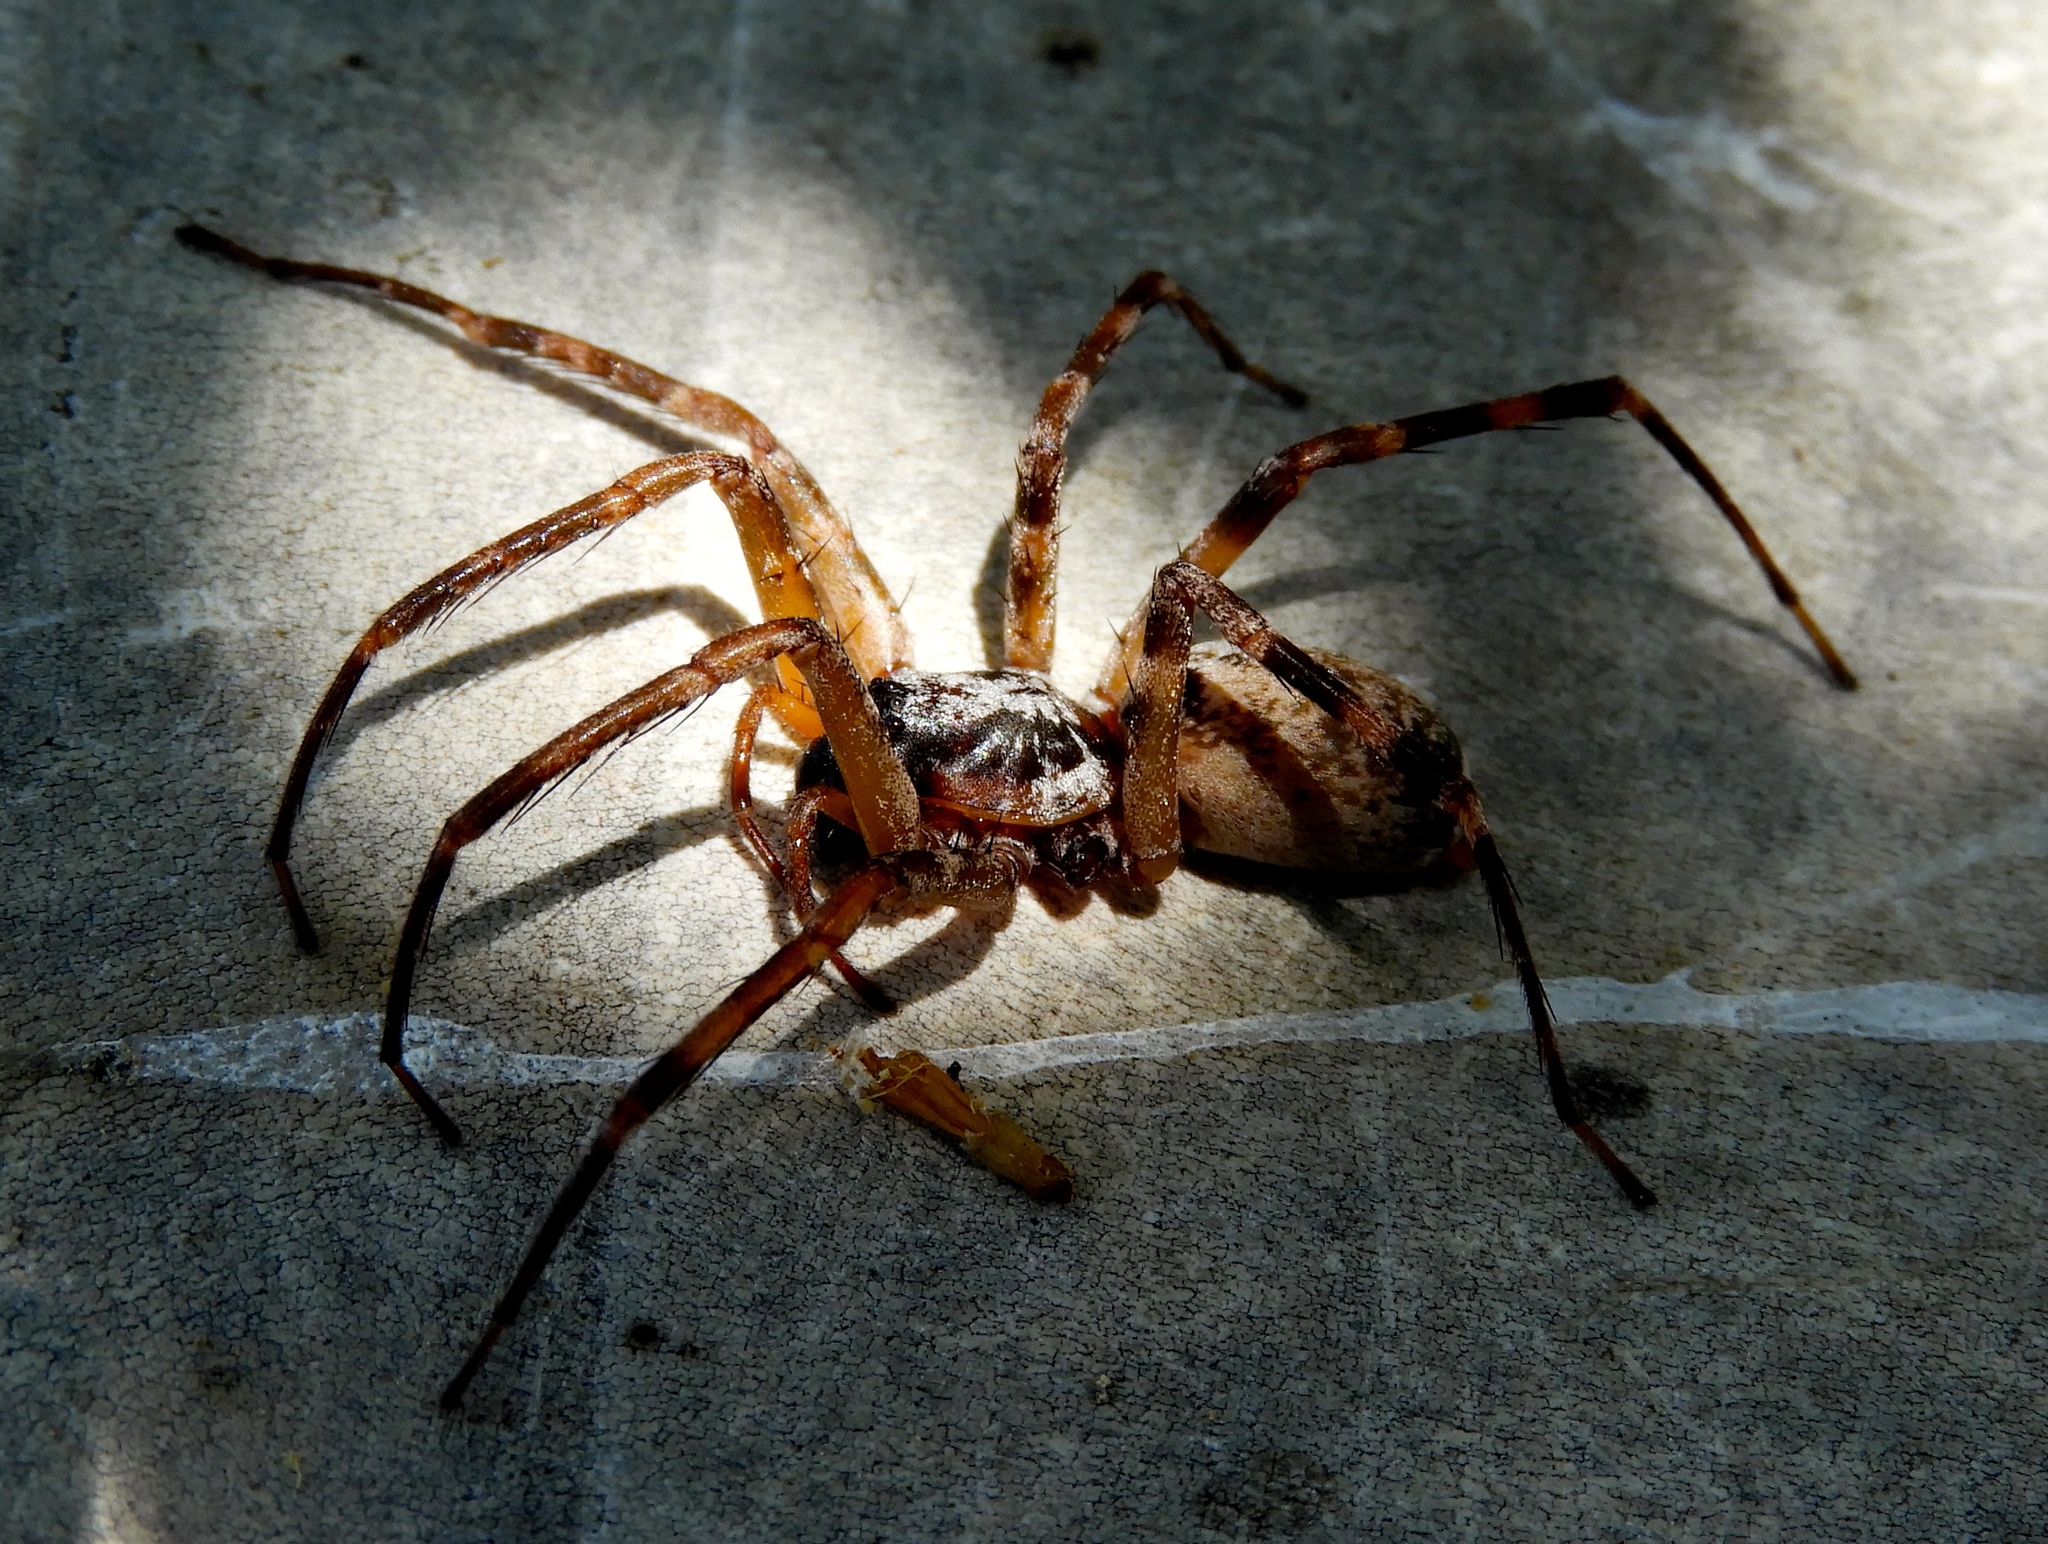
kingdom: Animalia
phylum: Arthropoda
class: Arachnida
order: Araneae
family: Corinnidae
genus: Megalostrata
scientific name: Megalostrata
